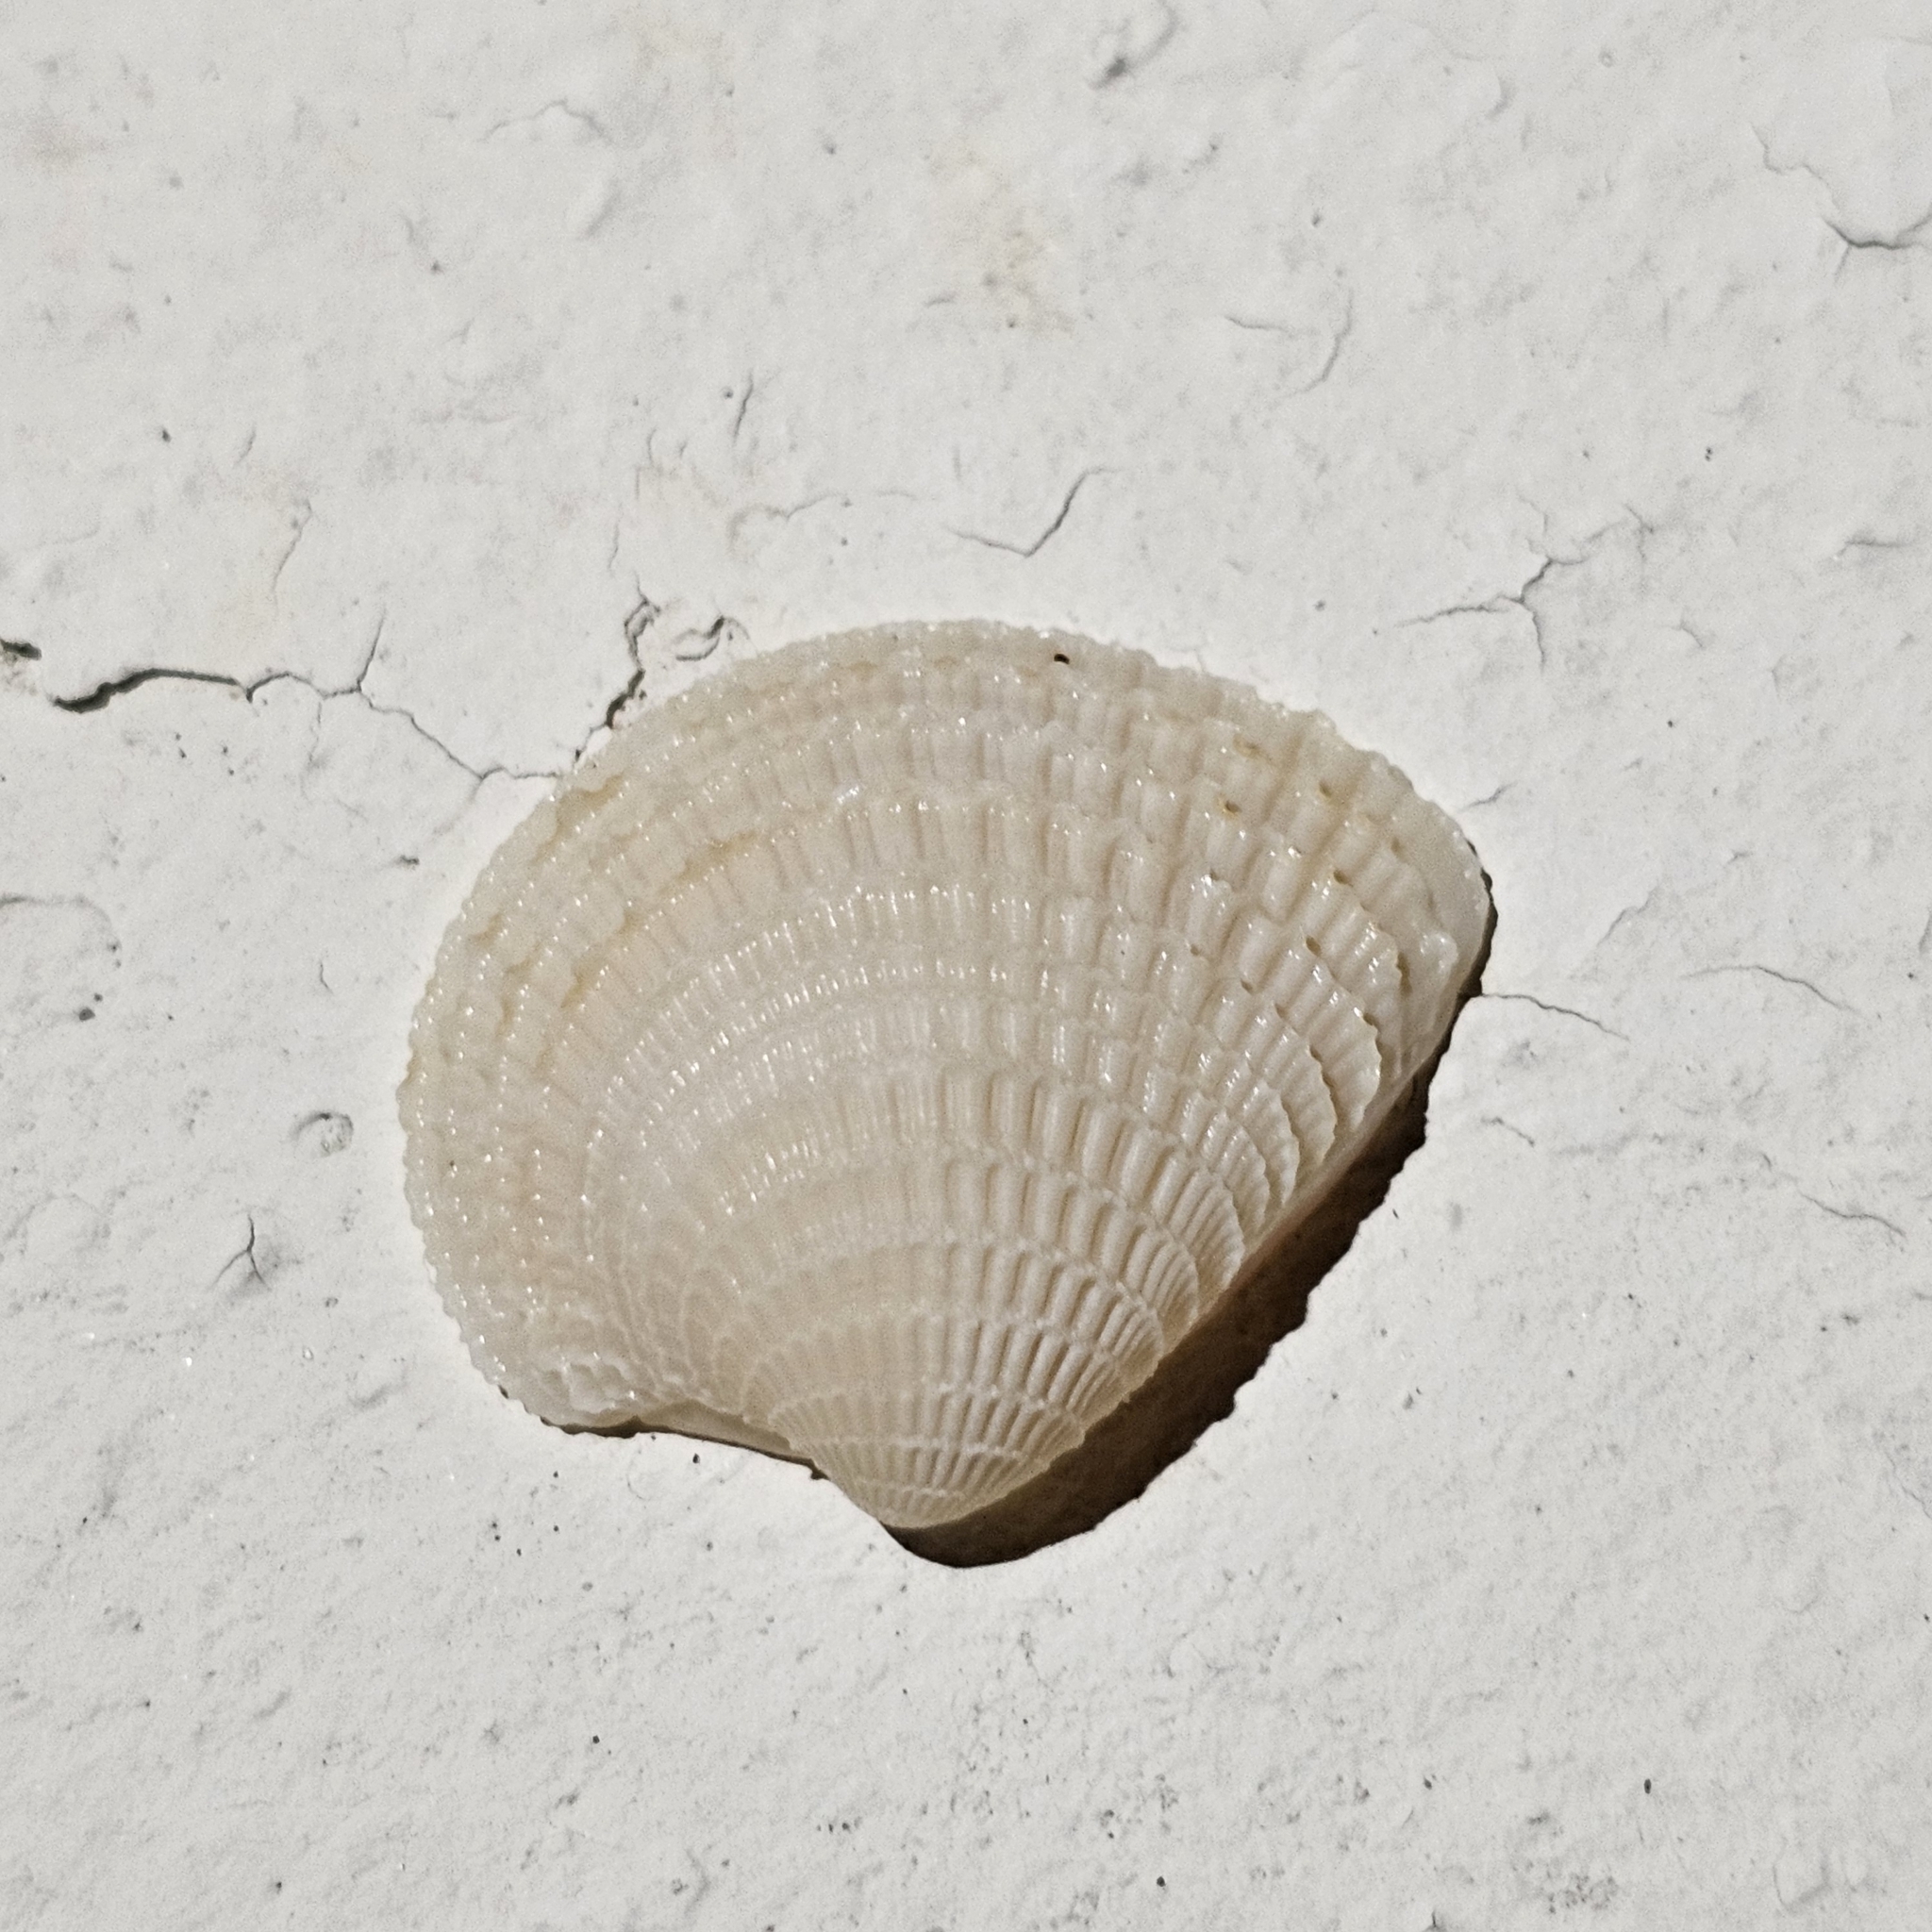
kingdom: Animalia
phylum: Mollusca
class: Bivalvia
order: Venerida
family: Veneridae
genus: Chionopsis
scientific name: Chionopsis amathusia
